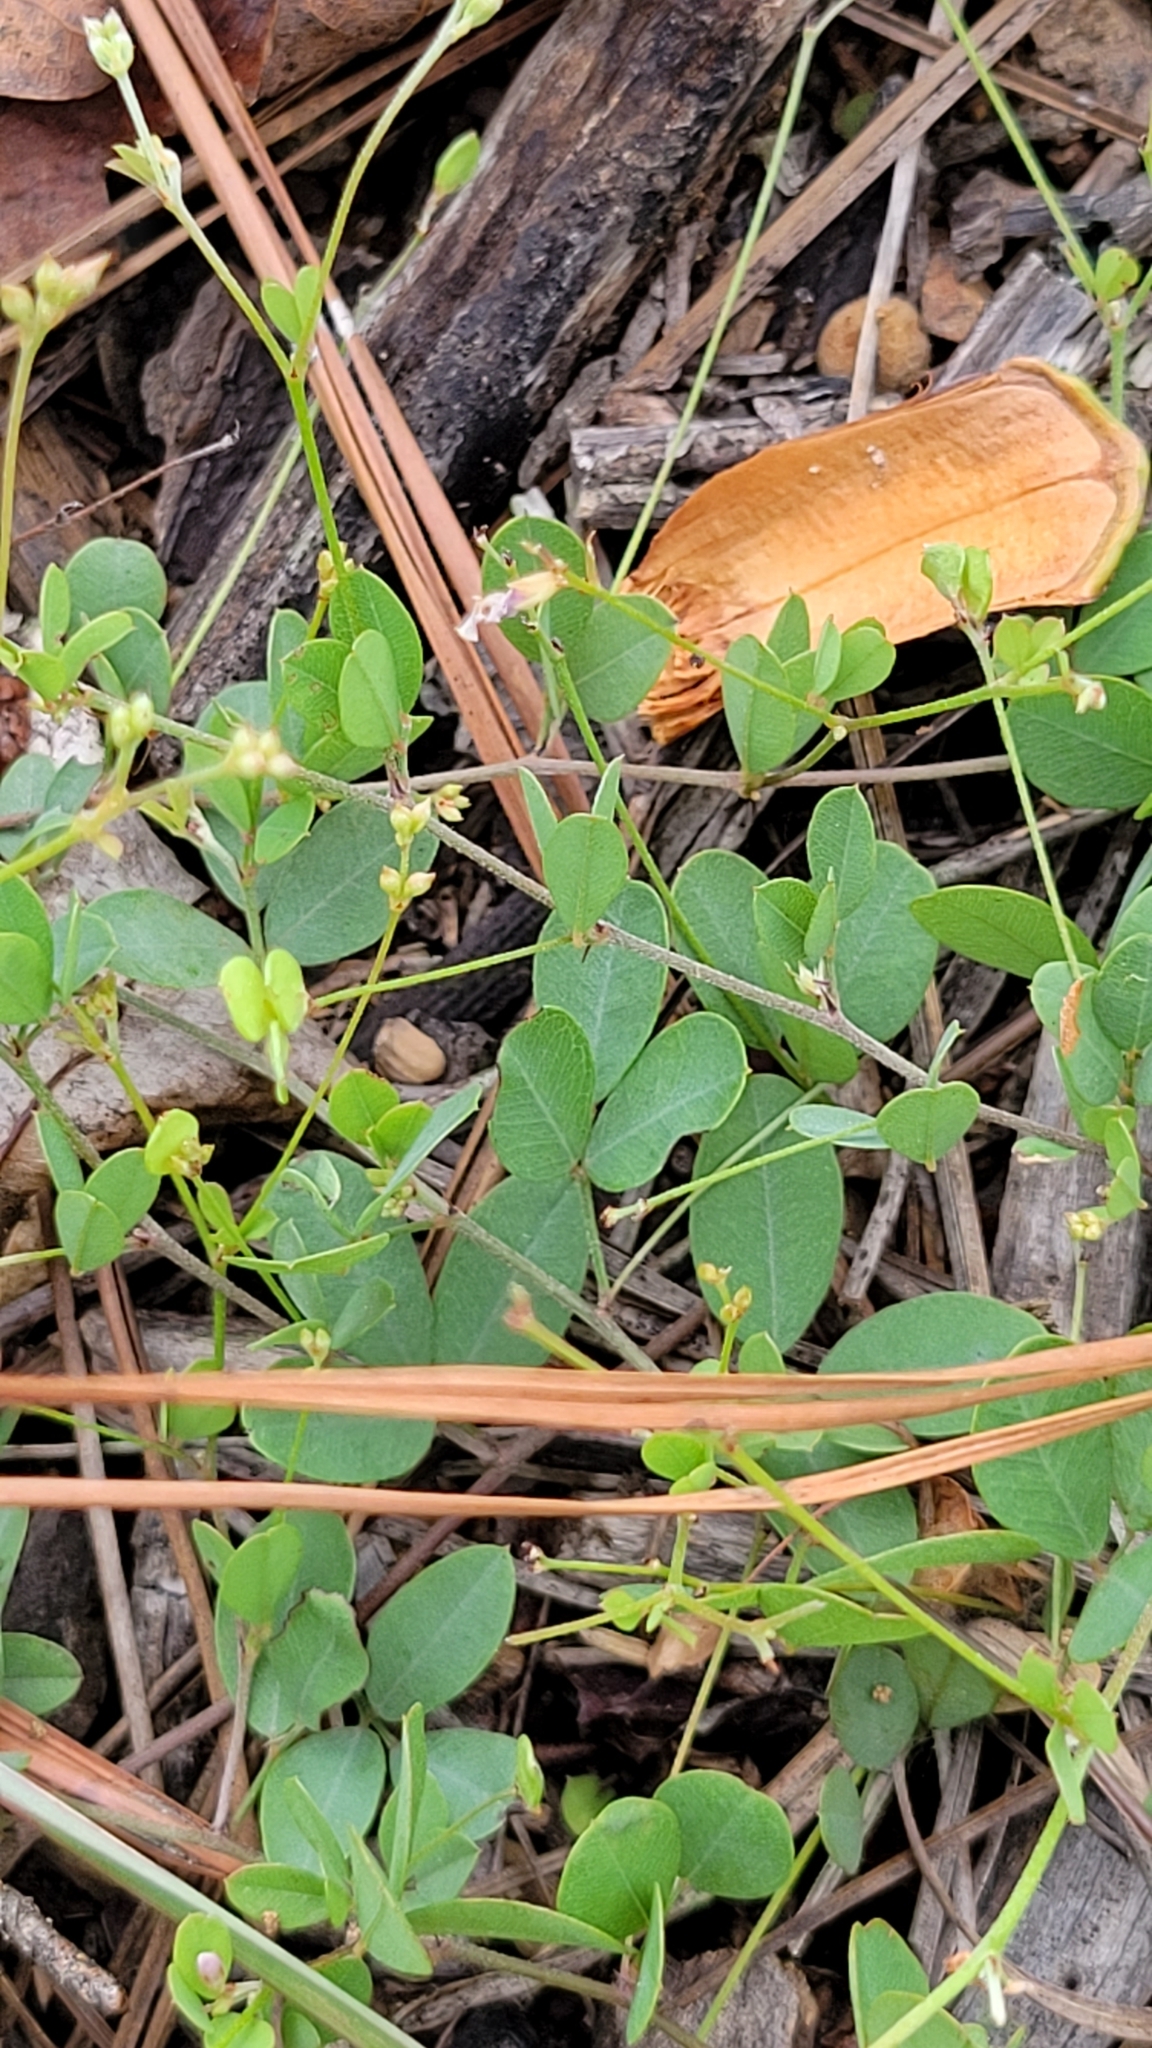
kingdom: Plantae
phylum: Tracheophyta
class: Magnoliopsida
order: Fabales
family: Fabaceae
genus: Lespedeza
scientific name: Lespedeza repens
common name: Creeping bush-clover
